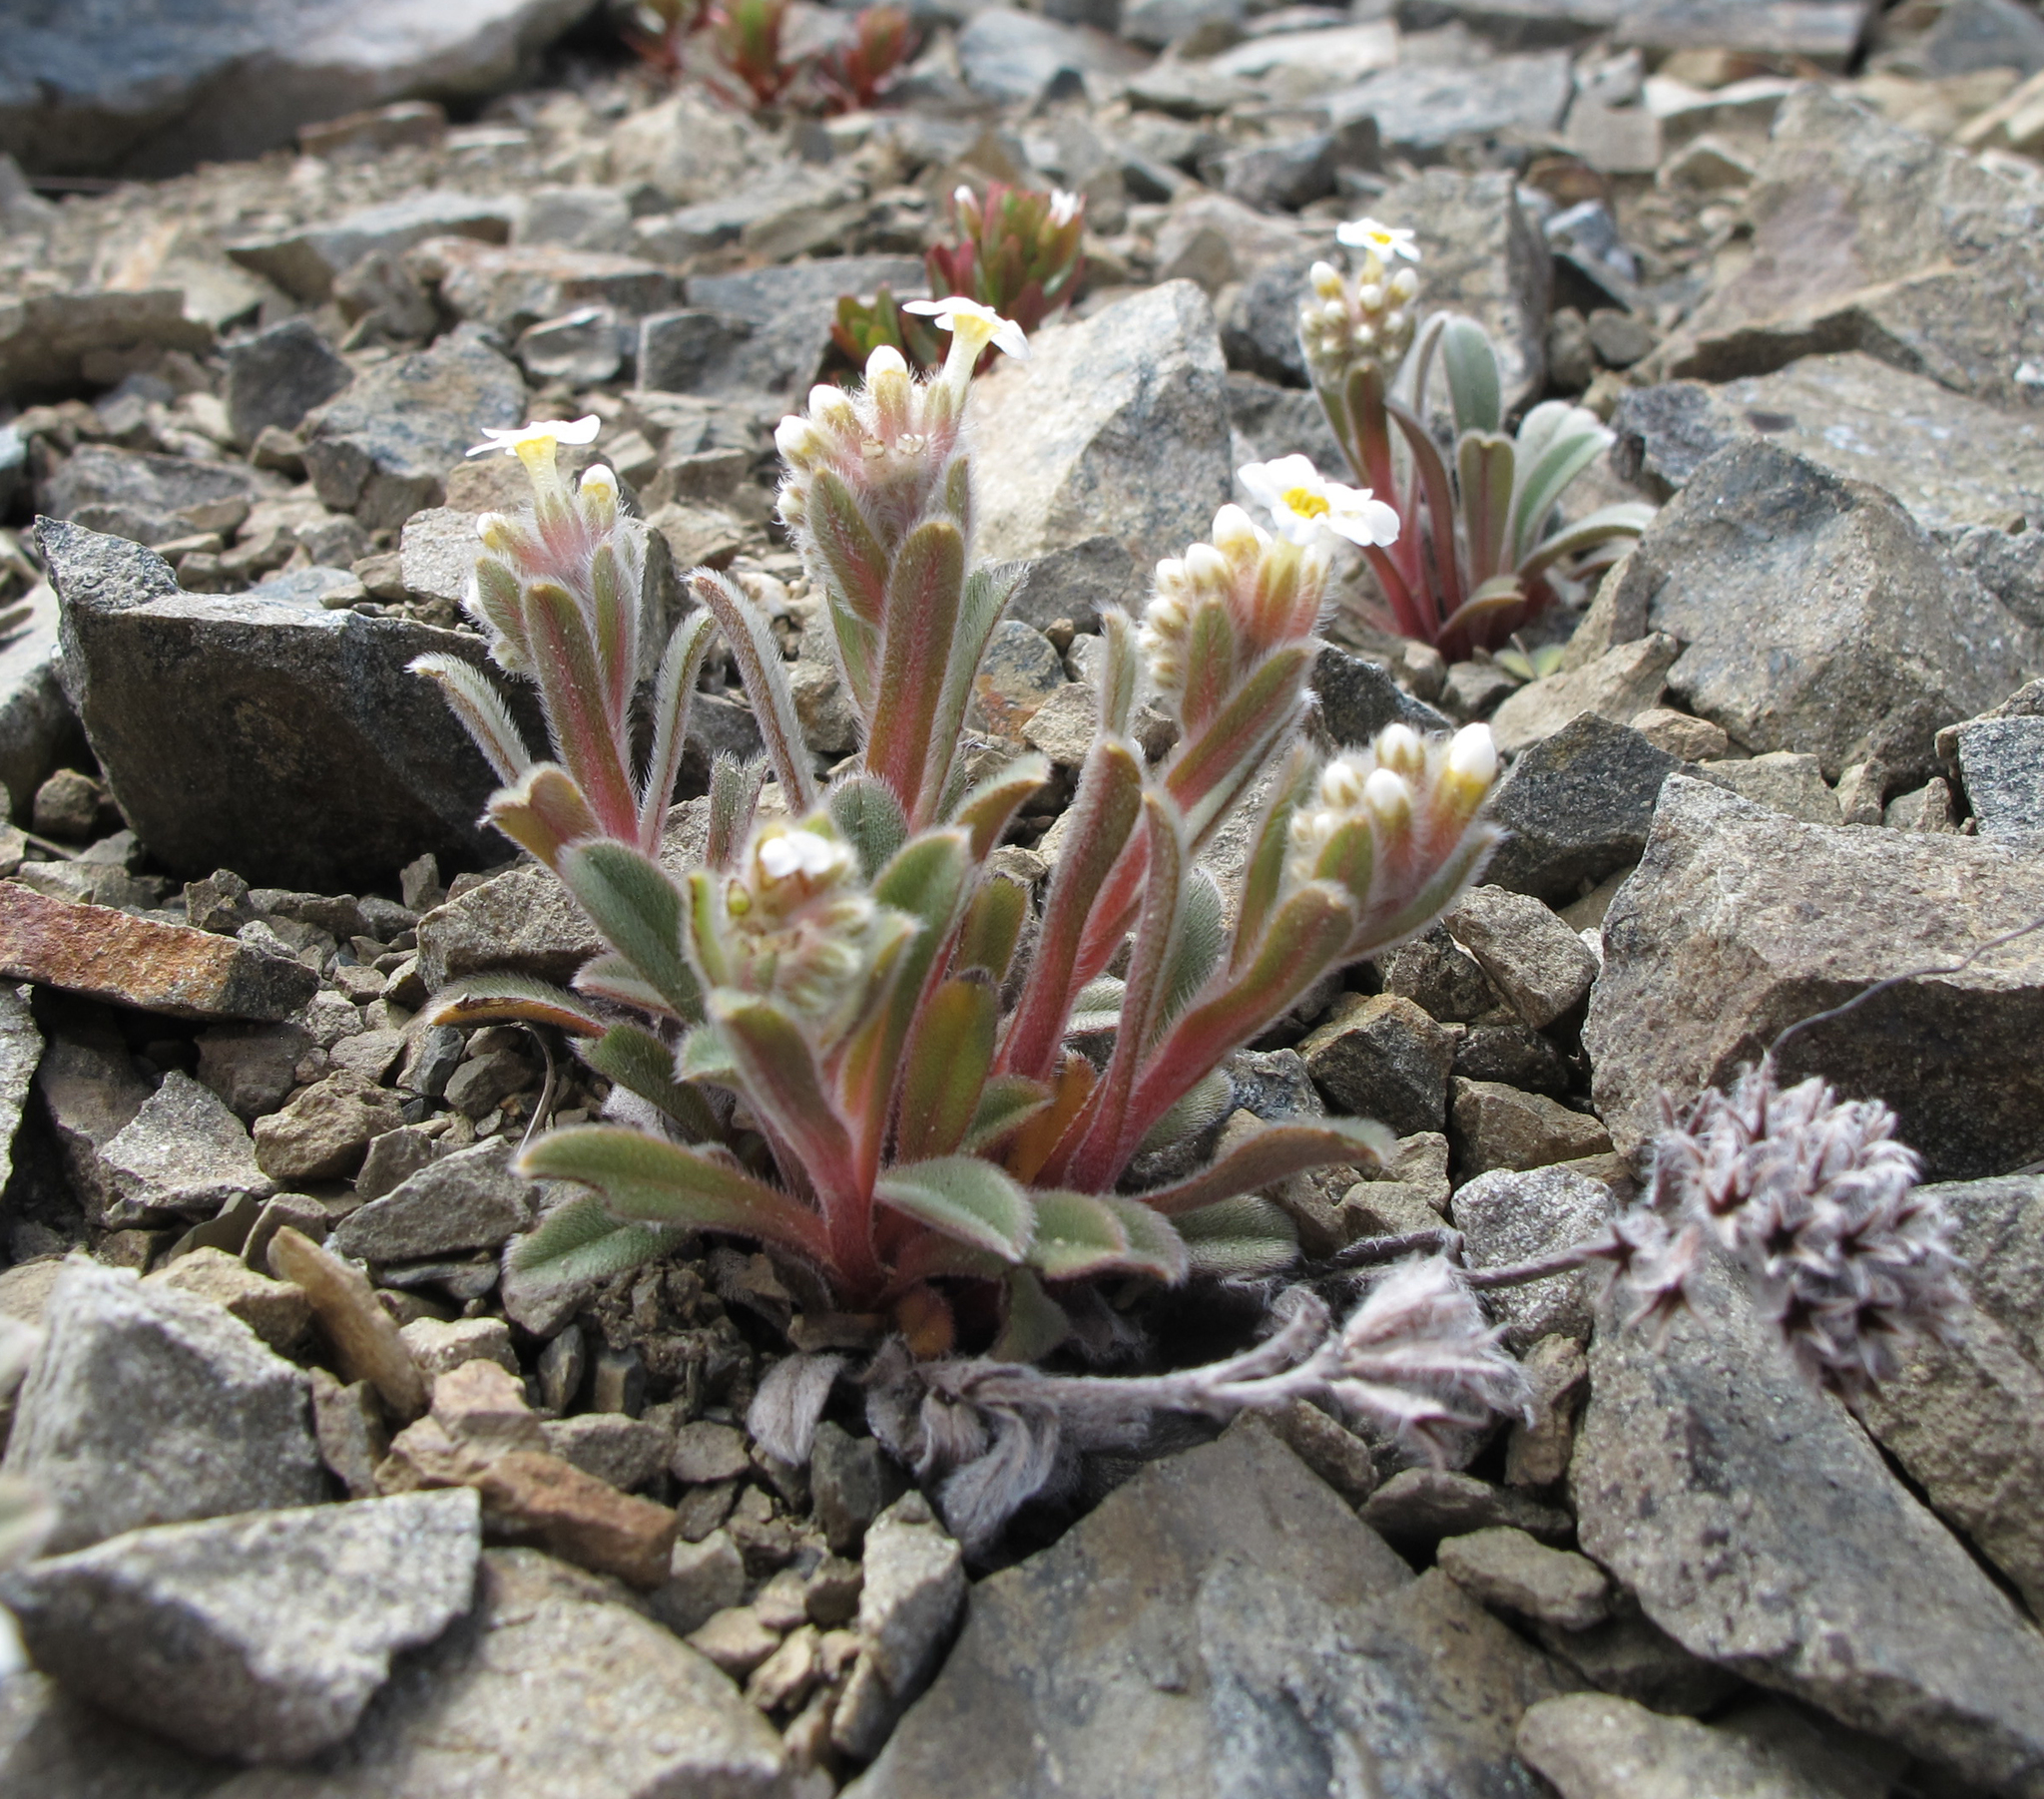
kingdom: Plantae
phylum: Tracheophyta
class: Magnoliopsida
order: Boraginales
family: Boraginaceae
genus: Myosotis
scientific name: Myosotis traversii
